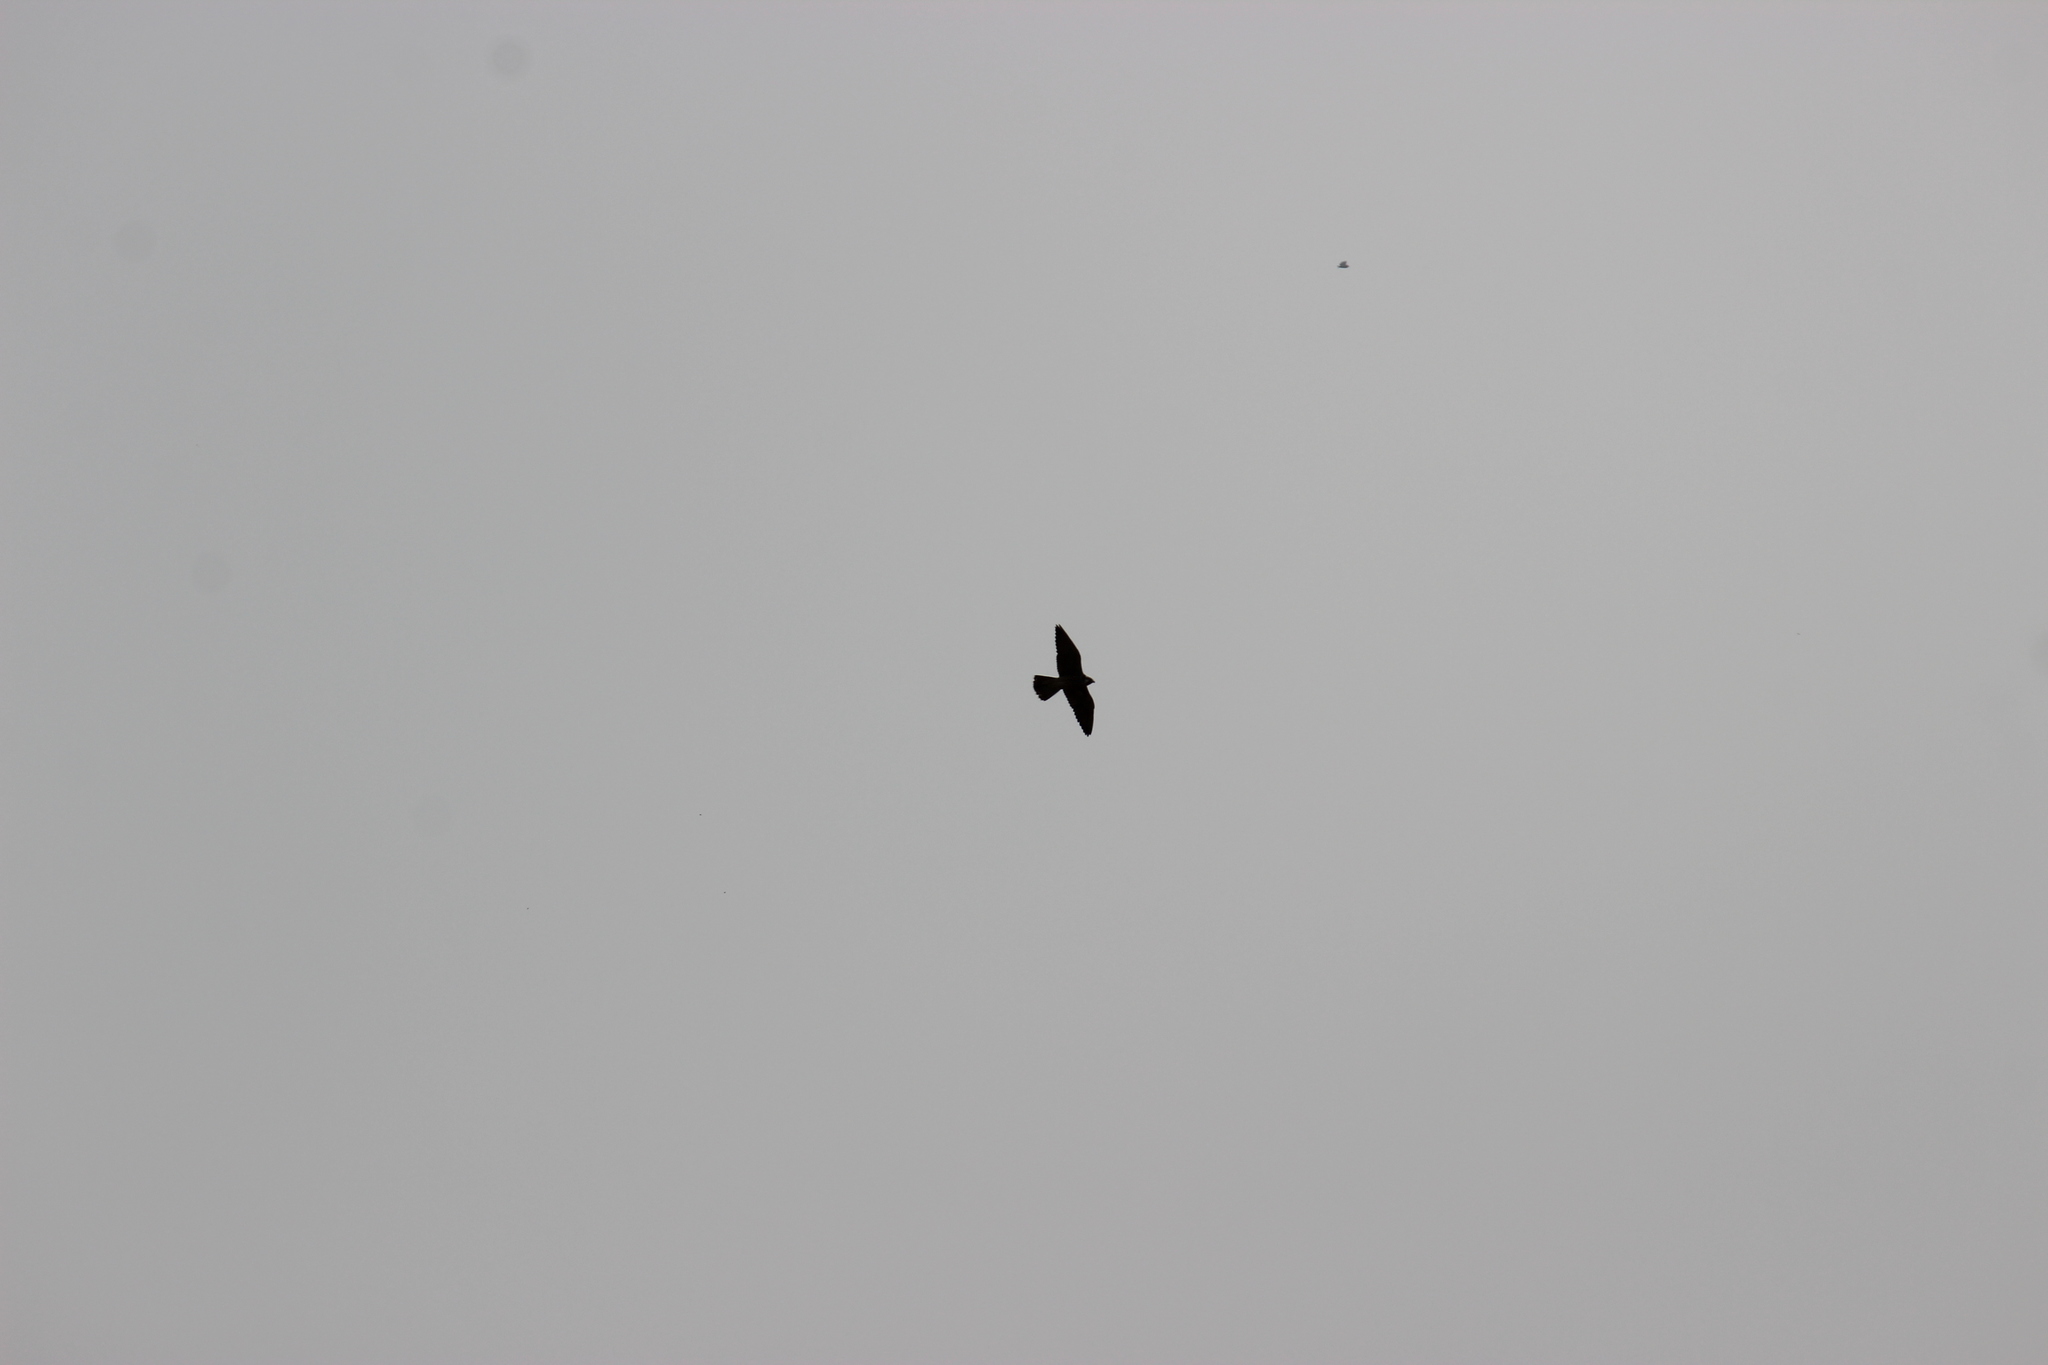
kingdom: Animalia
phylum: Chordata
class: Aves
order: Falconiformes
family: Falconidae
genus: Falco
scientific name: Falco peregrinus
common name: Peregrine falcon
